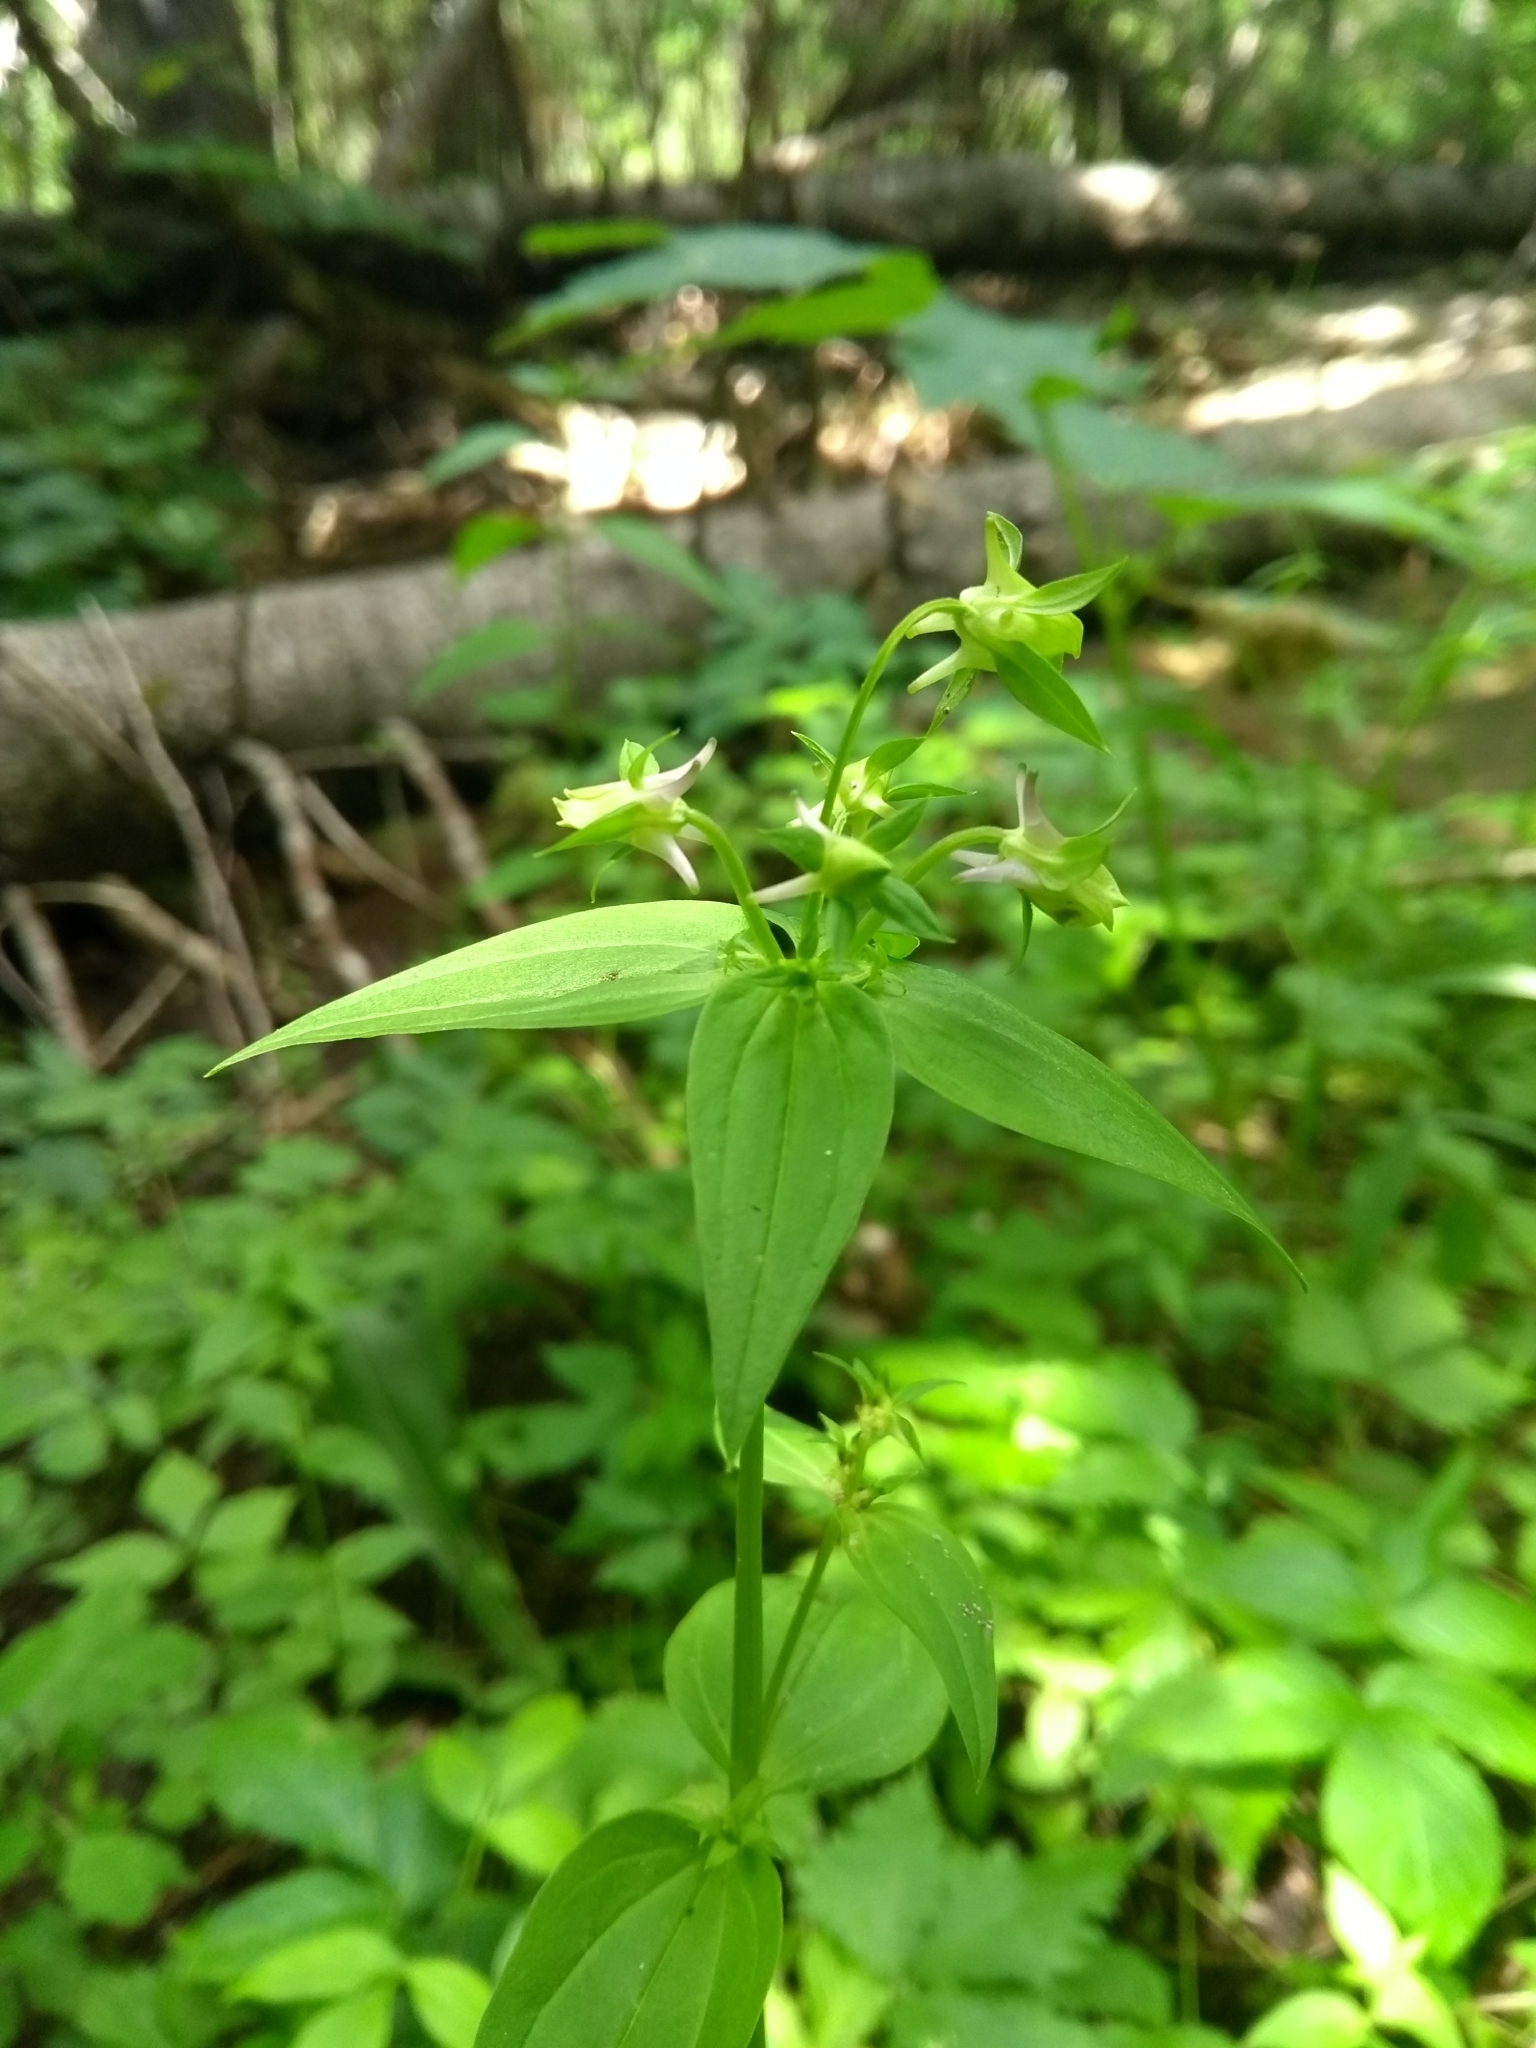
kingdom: Plantae
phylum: Tracheophyta
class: Magnoliopsida
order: Gentianales
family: Gentianaceae
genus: Halenia
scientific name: Halenia deflexa
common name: American spurred gentian
